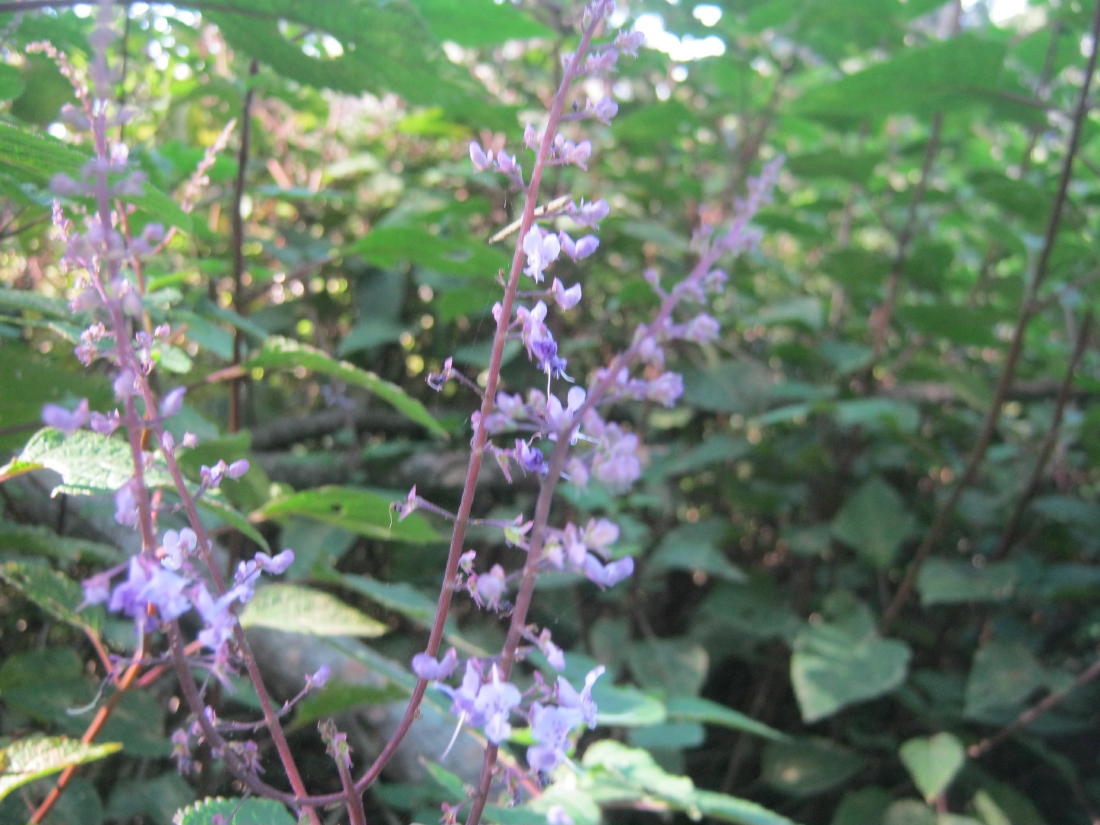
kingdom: Plantae
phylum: Tracheophyta
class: Magnoliopsida
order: Lamiales
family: Lamiaceae
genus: Plectranthus
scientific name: Plectranthus fruticosus
